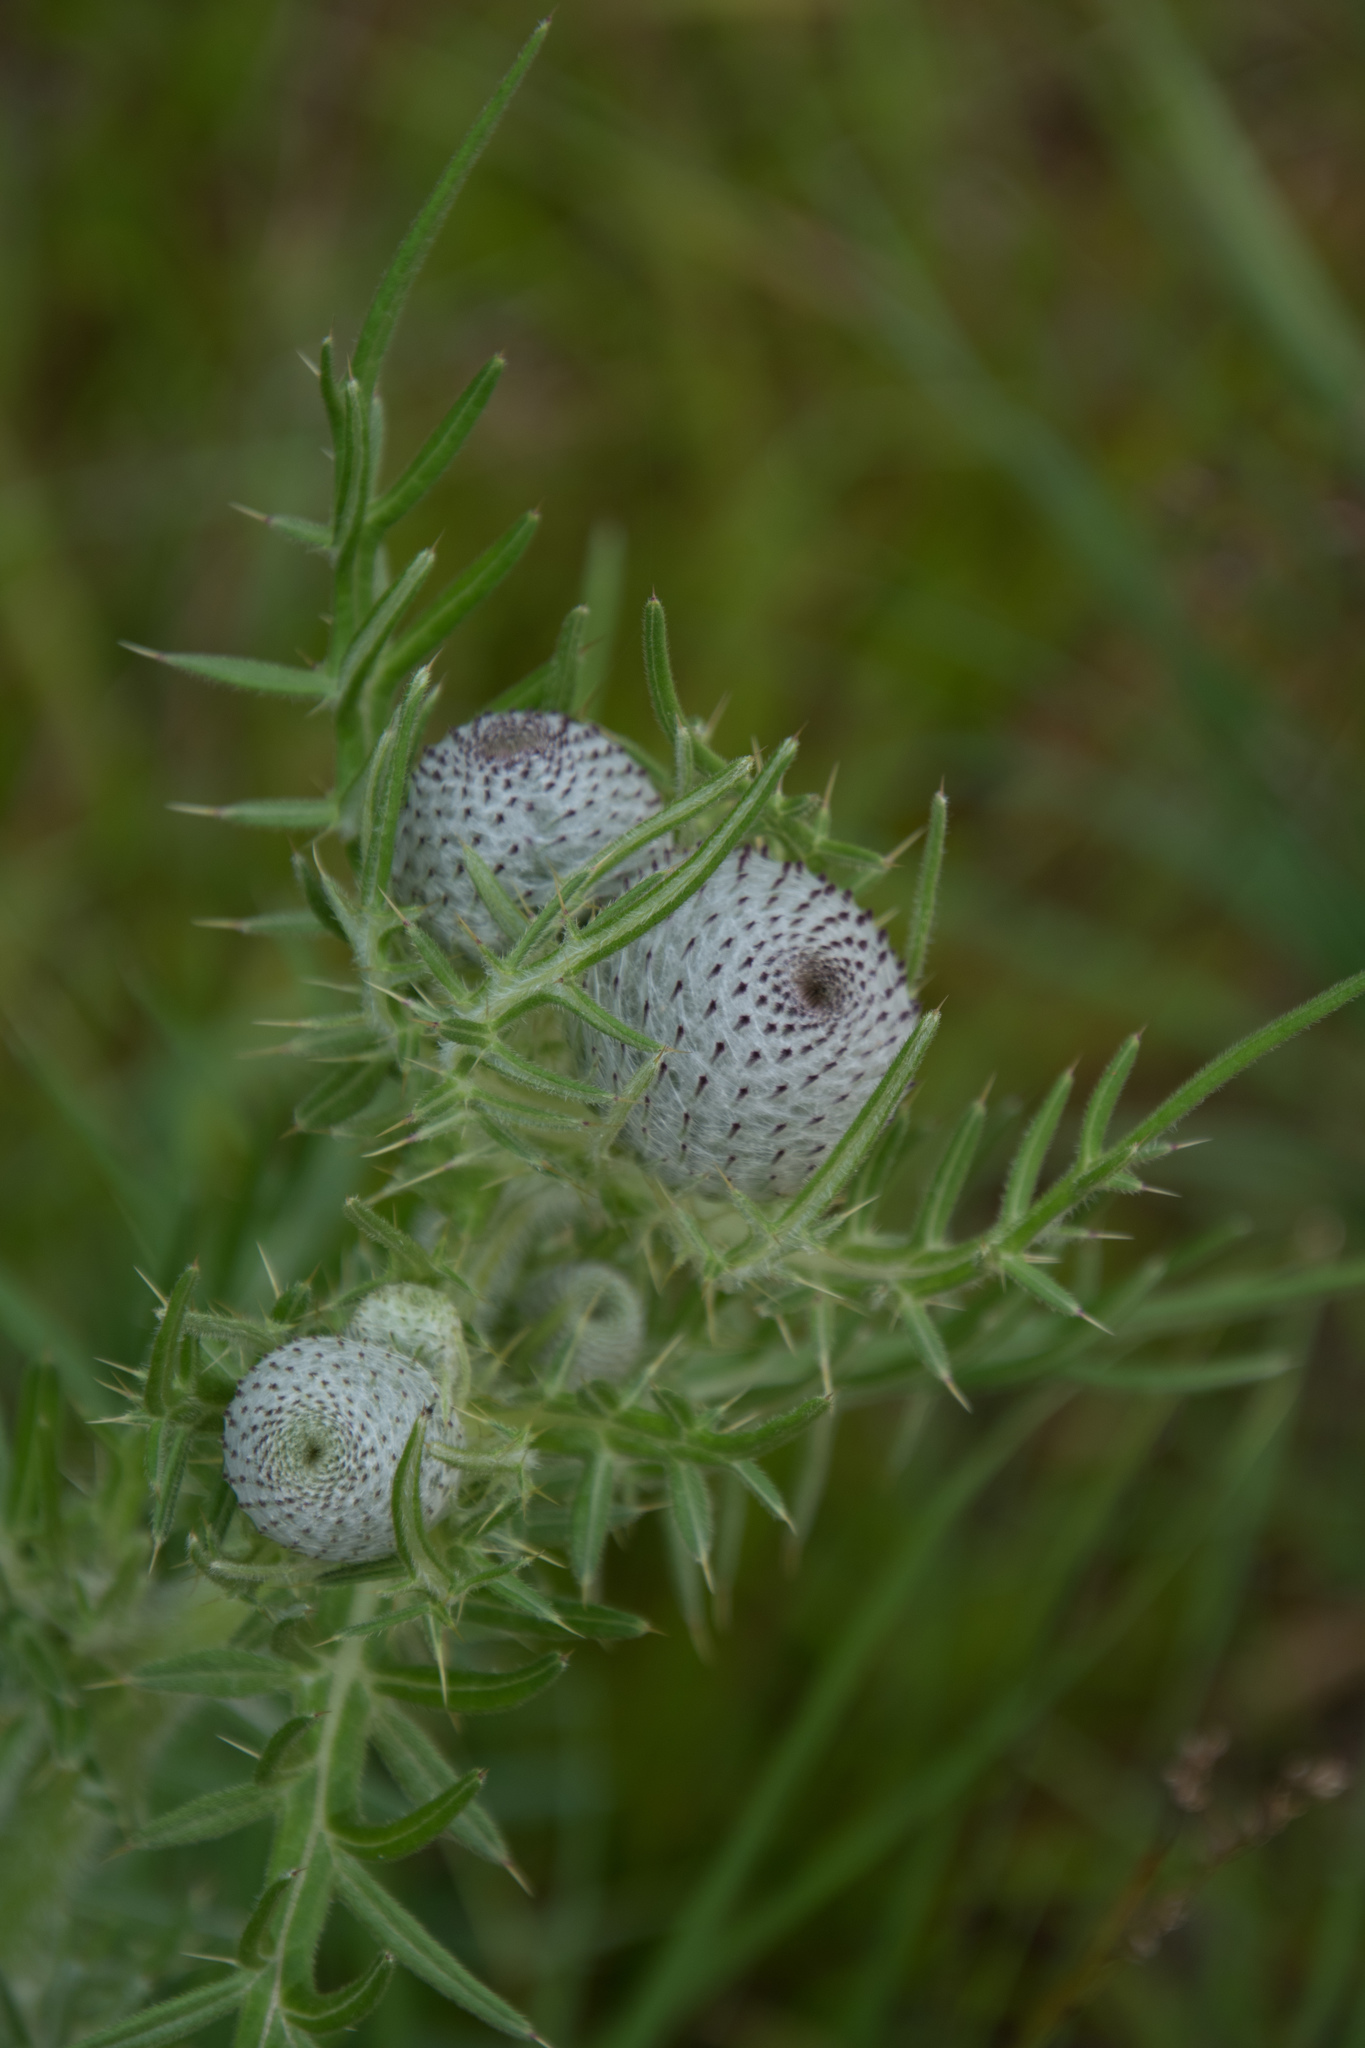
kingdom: Plantae
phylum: Tracheophyta
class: Magnoliopsida
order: Asterales
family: Asteraceae
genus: Lophiolepis
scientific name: Lophiolepis eriophora
